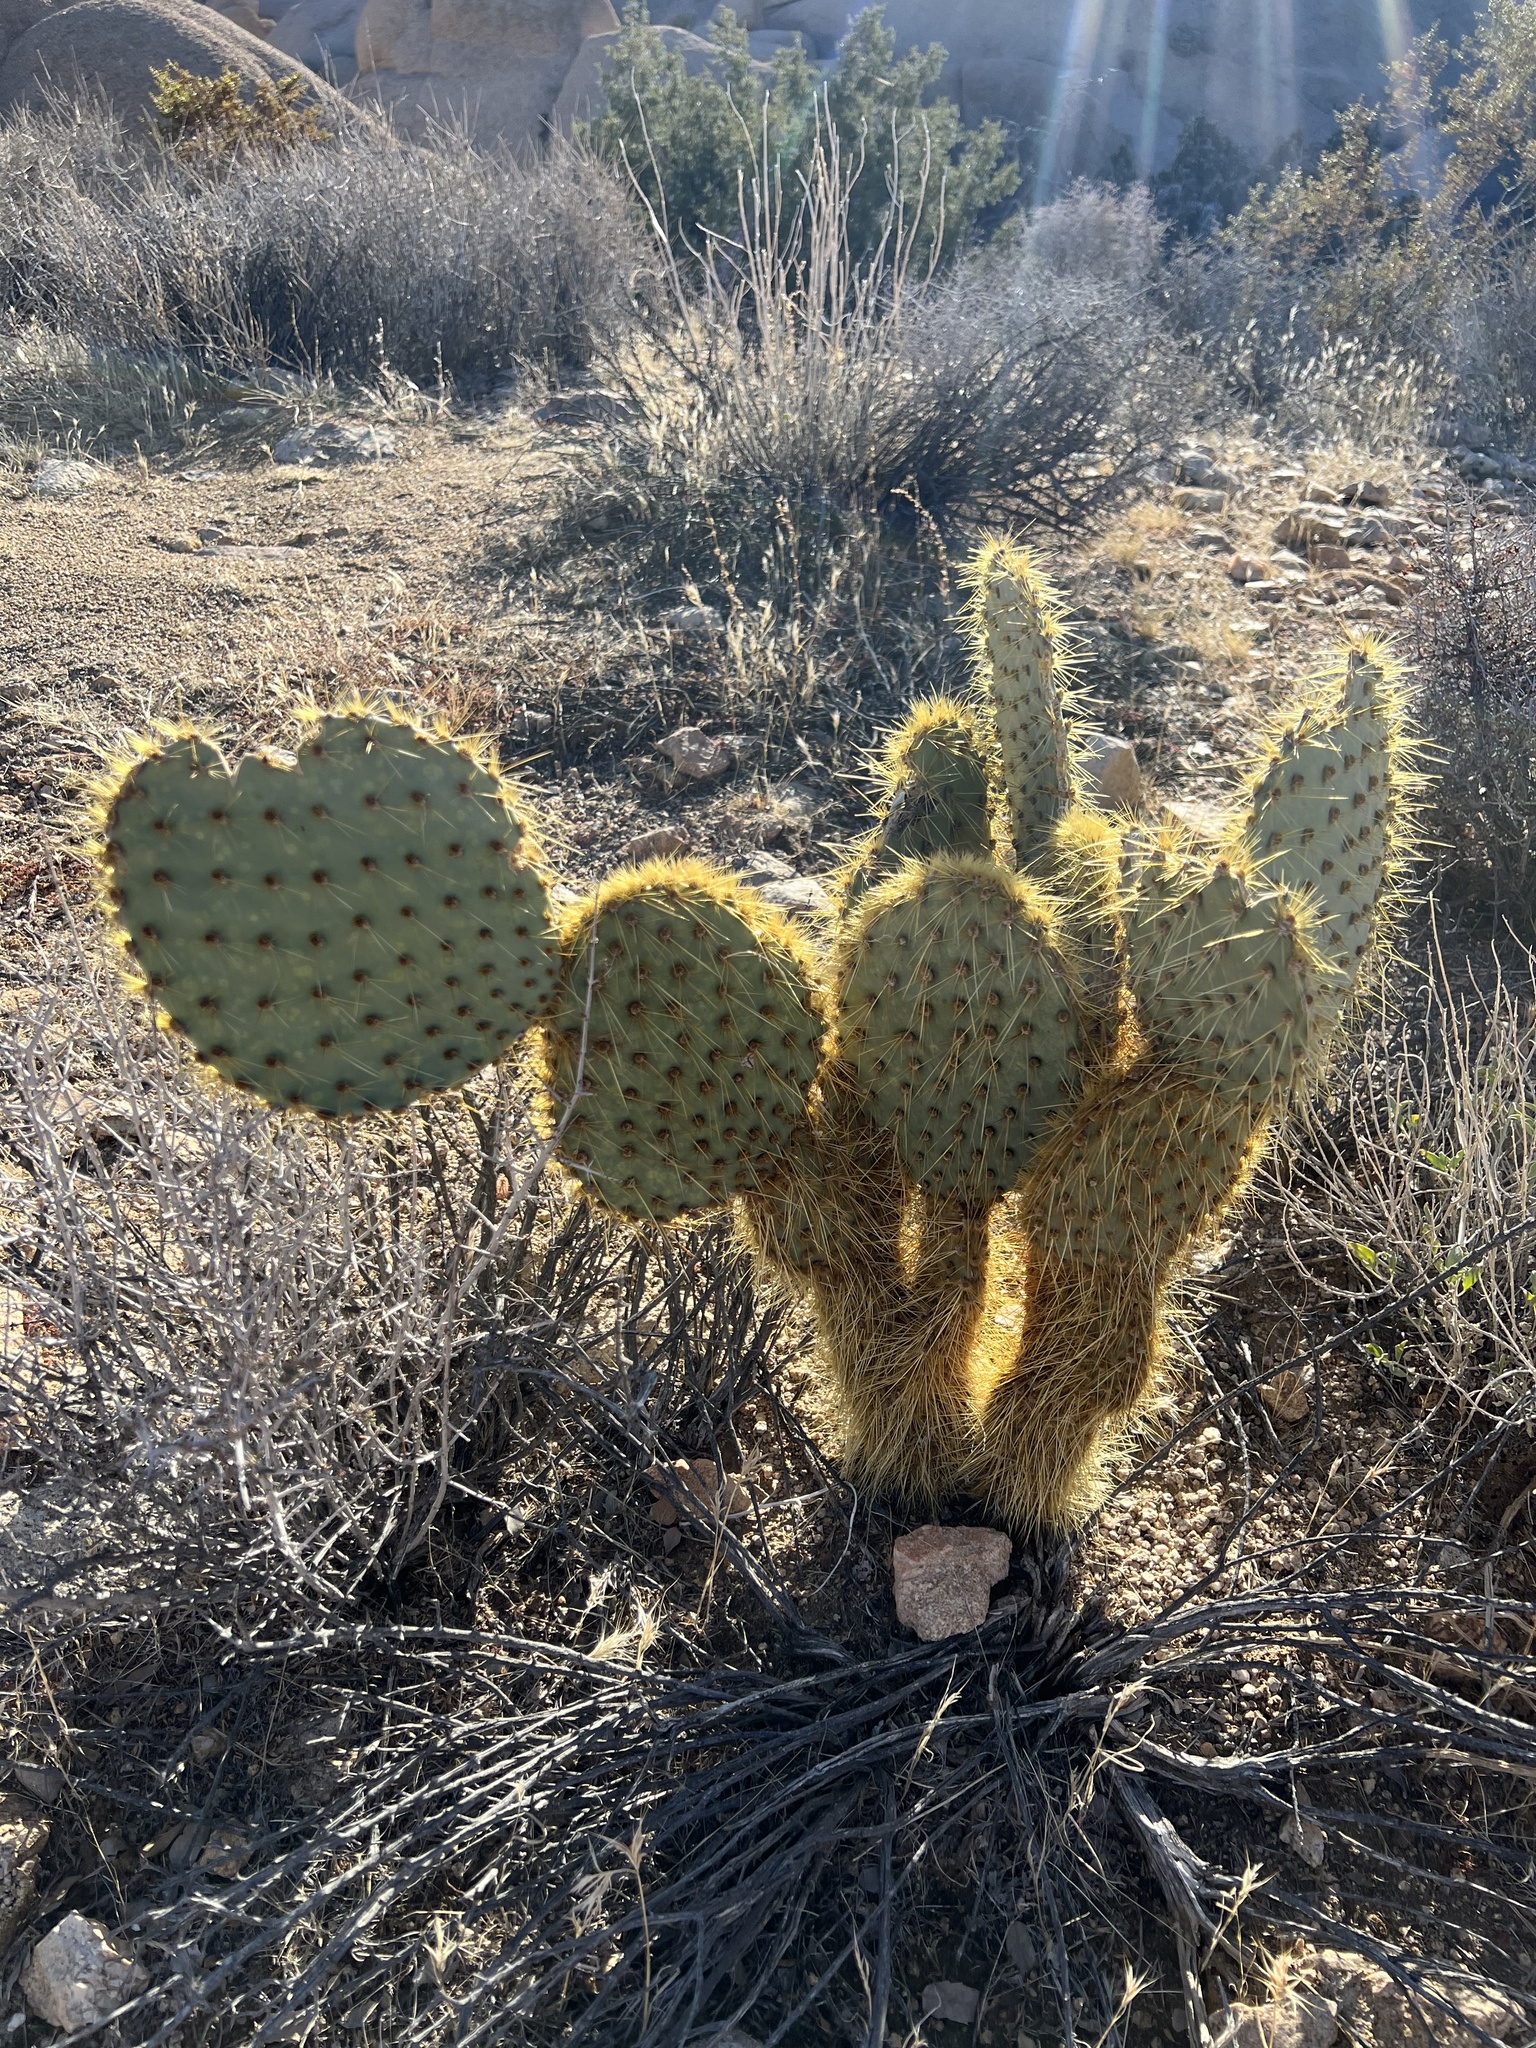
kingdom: Plantae
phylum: Tracheophyta
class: Magnoliopsida
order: Caryophyllales
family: Cactaceae
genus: Opuntia
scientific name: Opuntia chlorotica
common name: Dollar-joint prickly-pear
